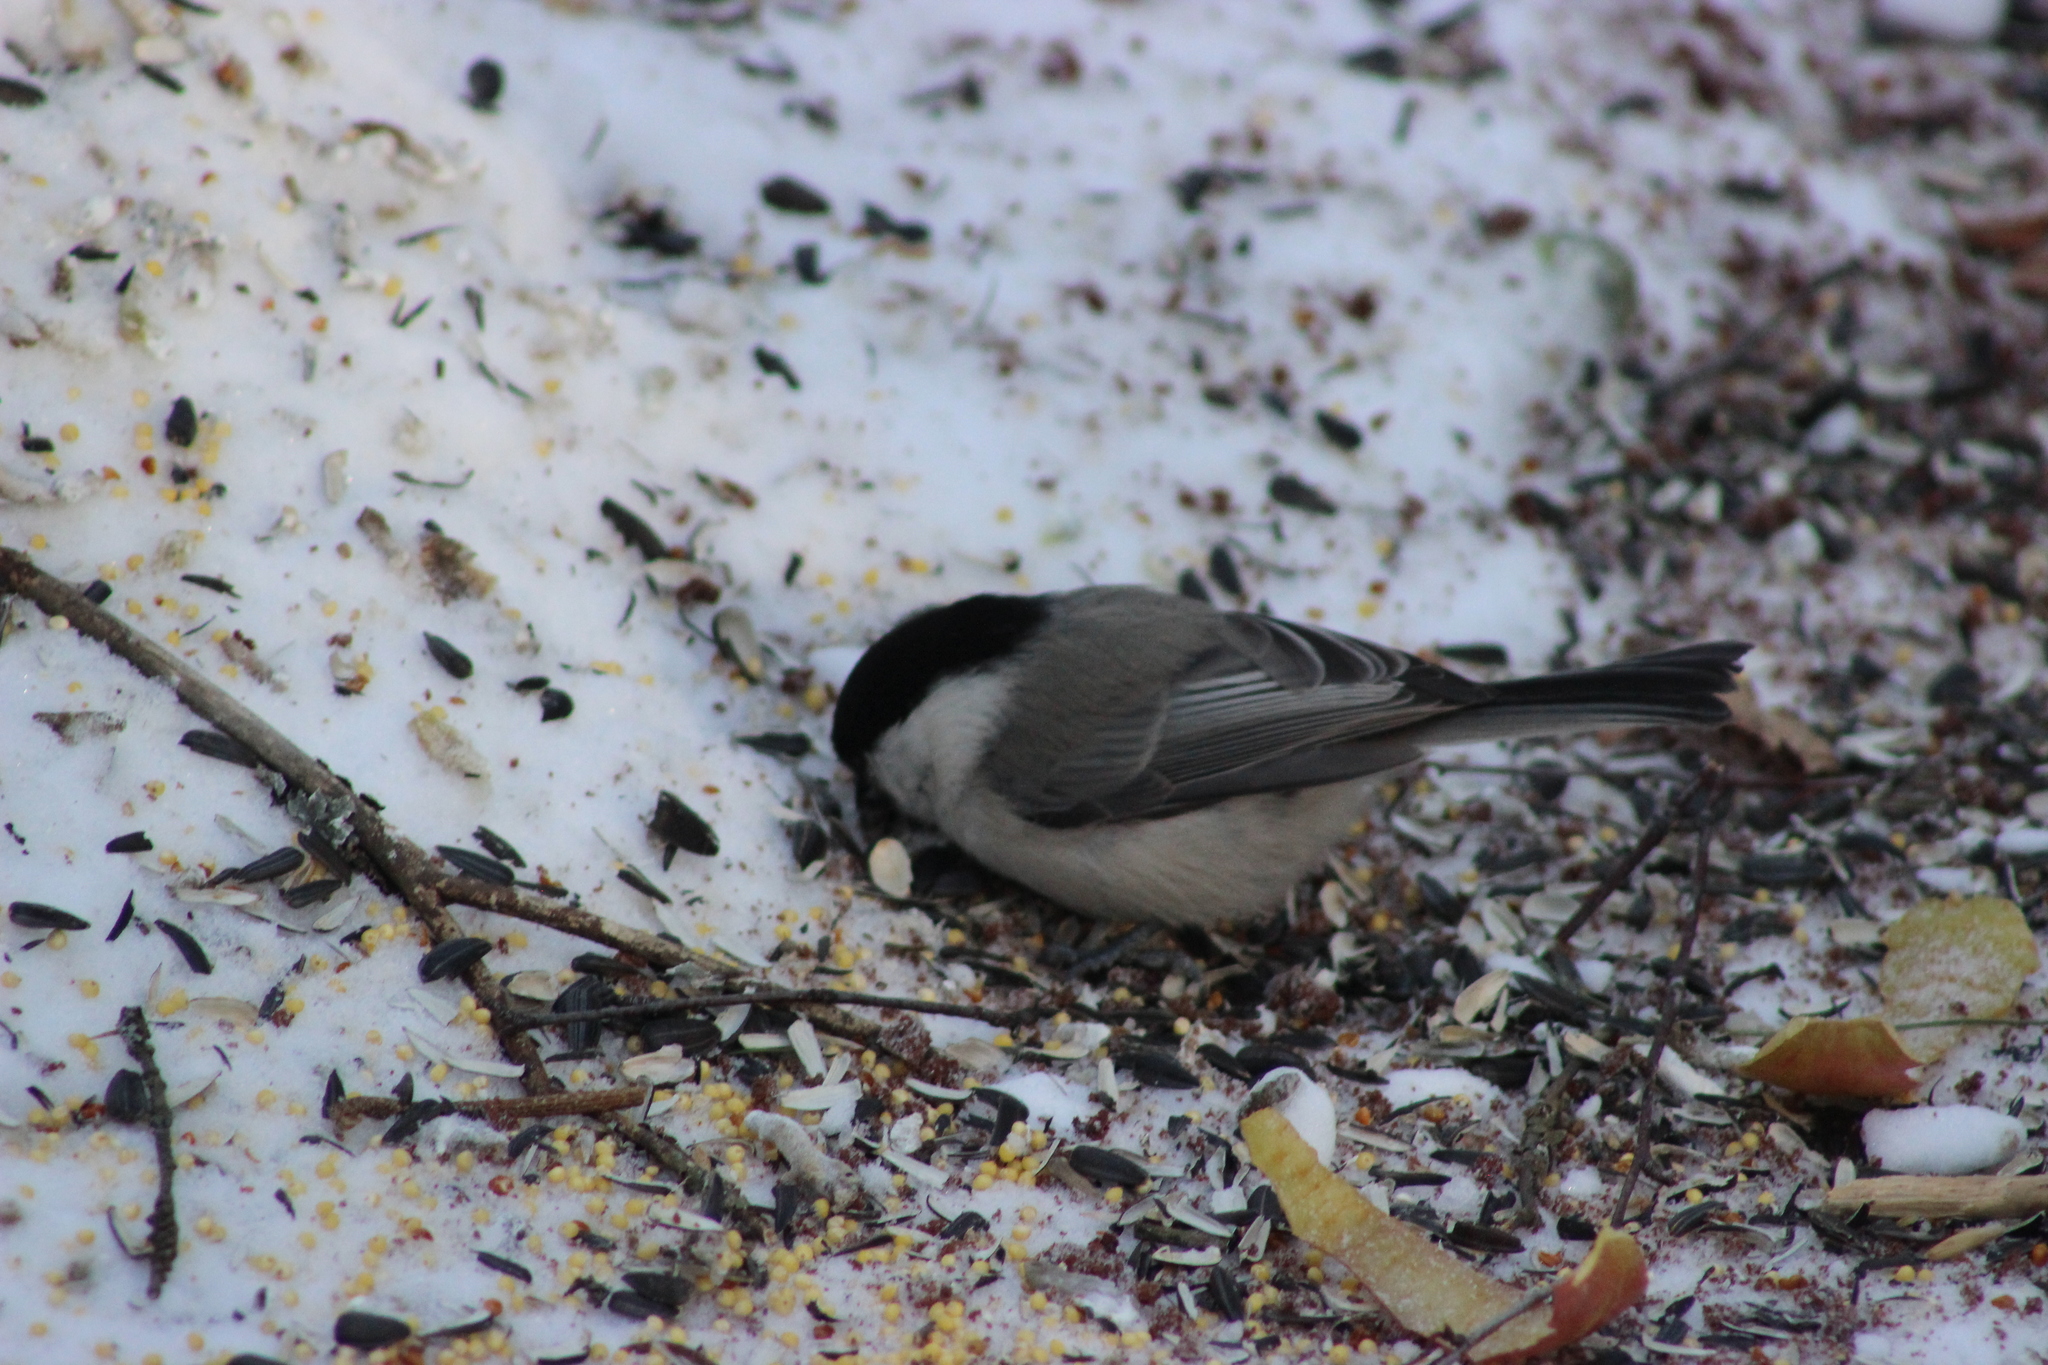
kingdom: Animalia
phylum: Chordata
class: Aves
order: Passeriformes
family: Paridae
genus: Poecile
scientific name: Poecile montanus
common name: Willow tit
